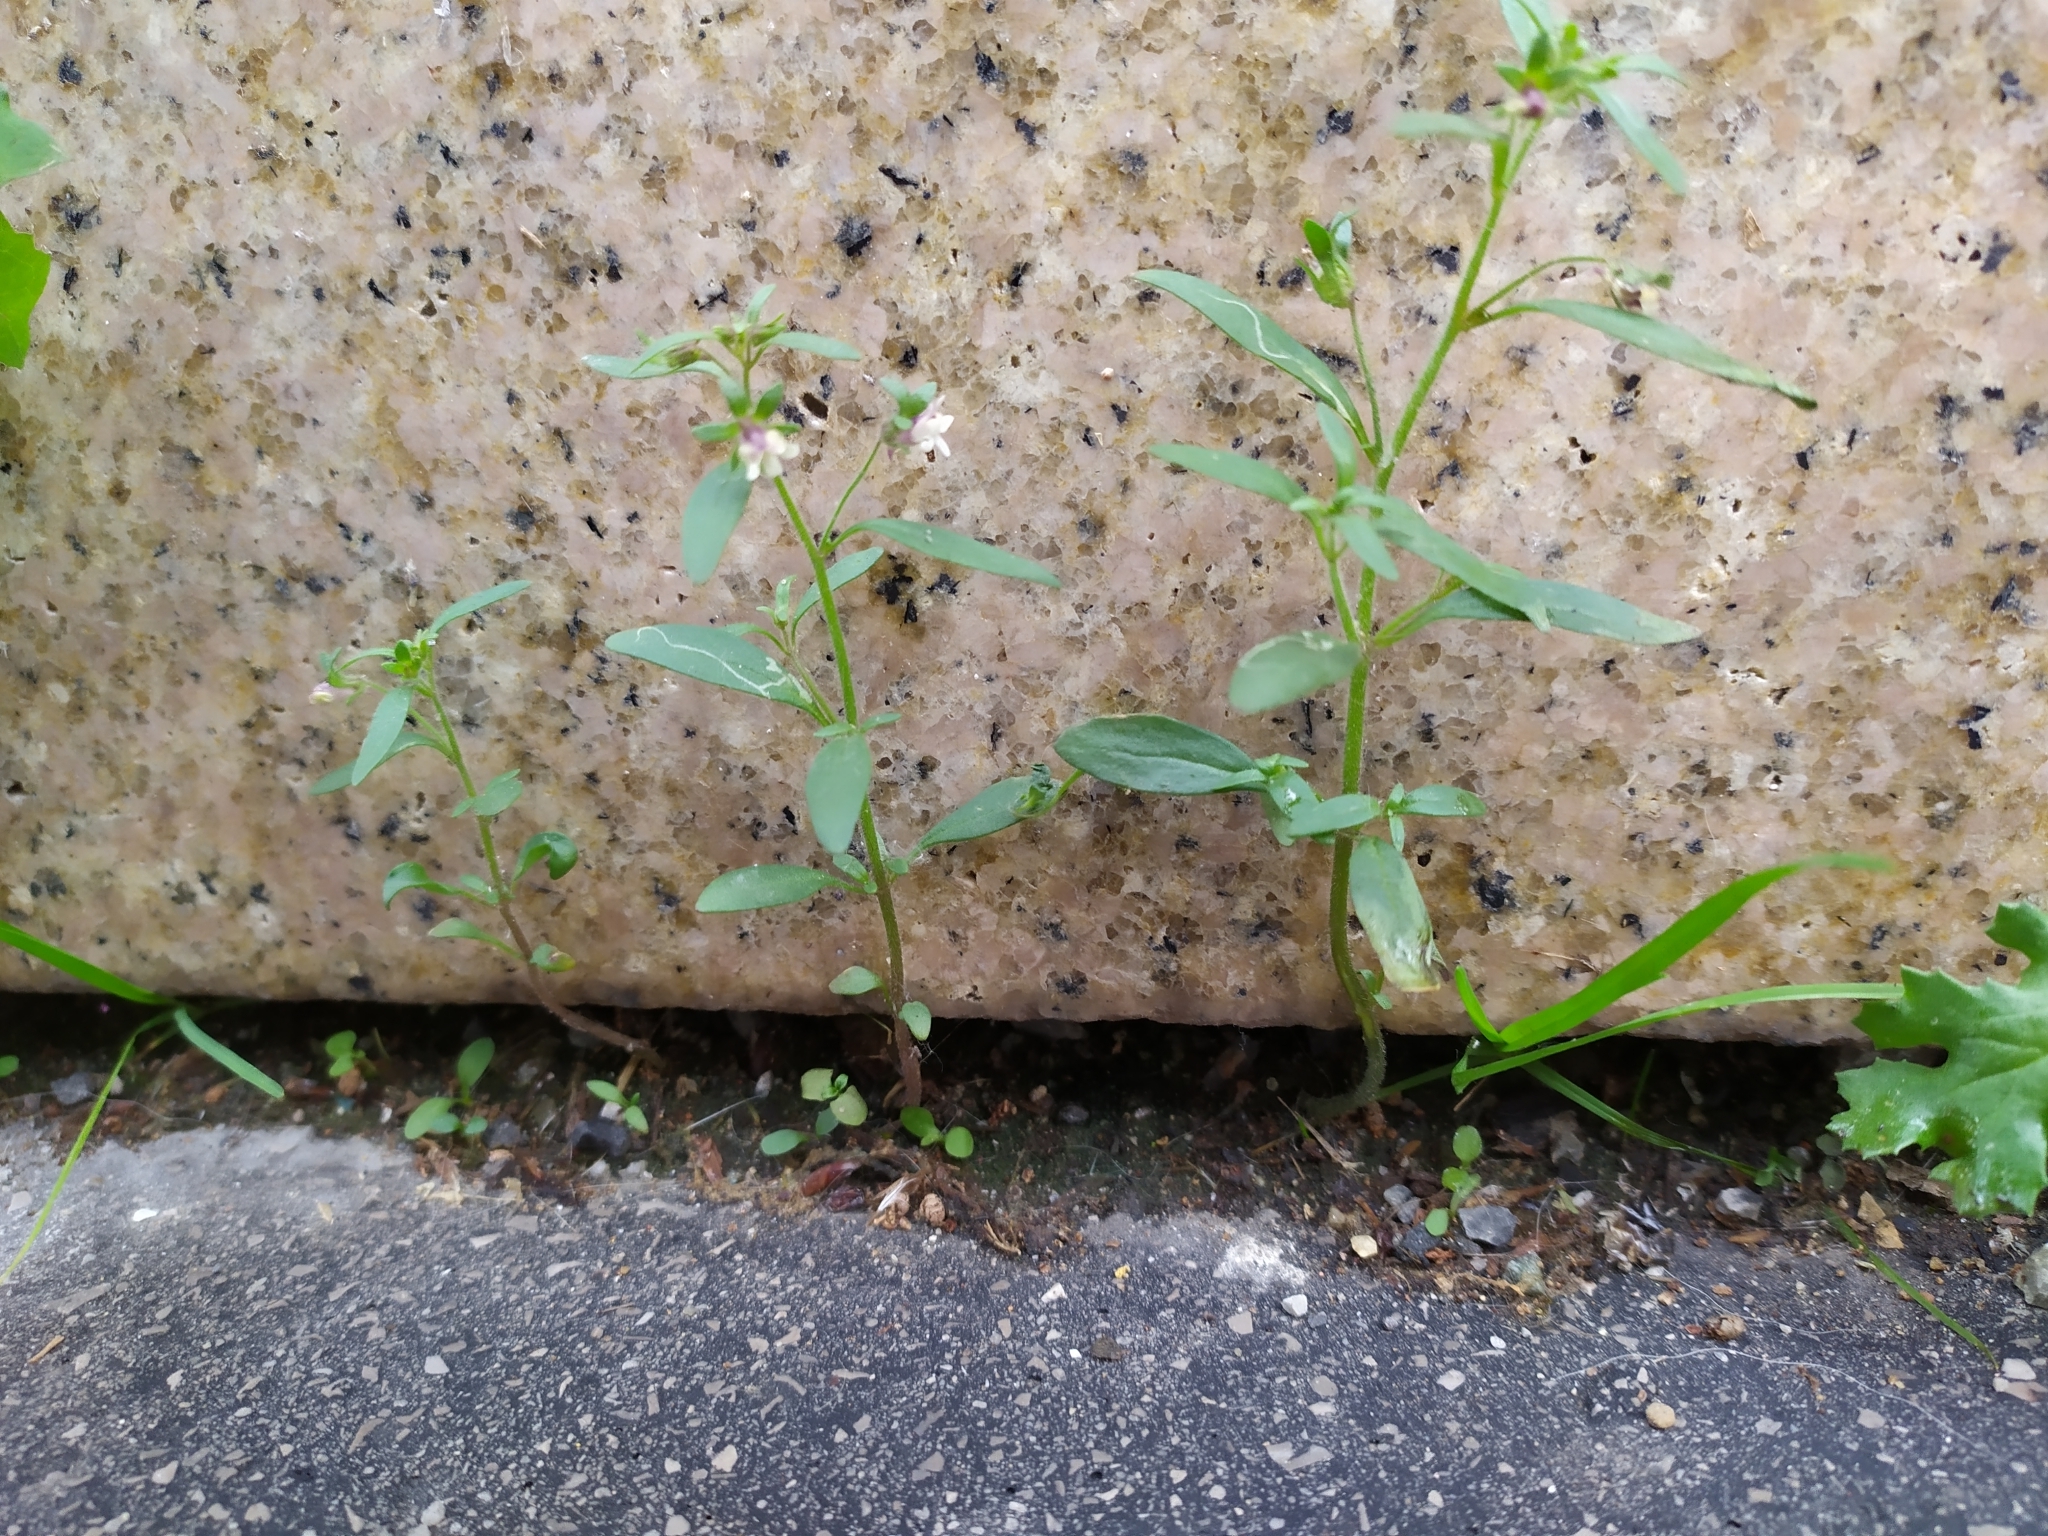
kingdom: Plantae
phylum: Tracheophyta
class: Magnoliopsida
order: Lamiales
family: Plantaginaceae
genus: Chaenorhinum
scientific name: Chaenorhinum minus
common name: Dwarf snapdragon
